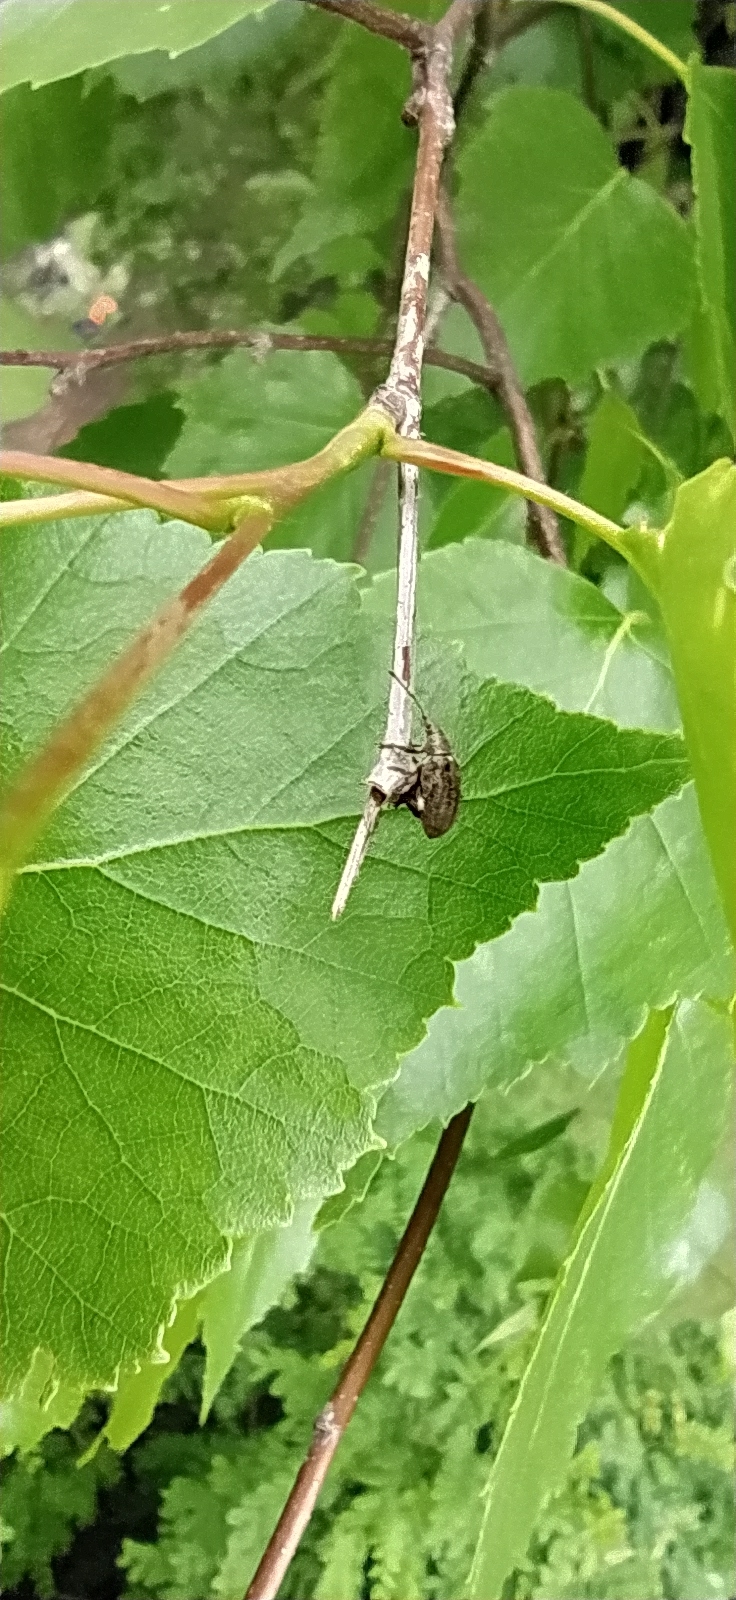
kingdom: Animalia
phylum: Arthropoda
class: Insecta
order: Coleoptera
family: Curculionidae
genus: Phyllobius
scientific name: Phyllobius pyri
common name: Common leaf weevil
